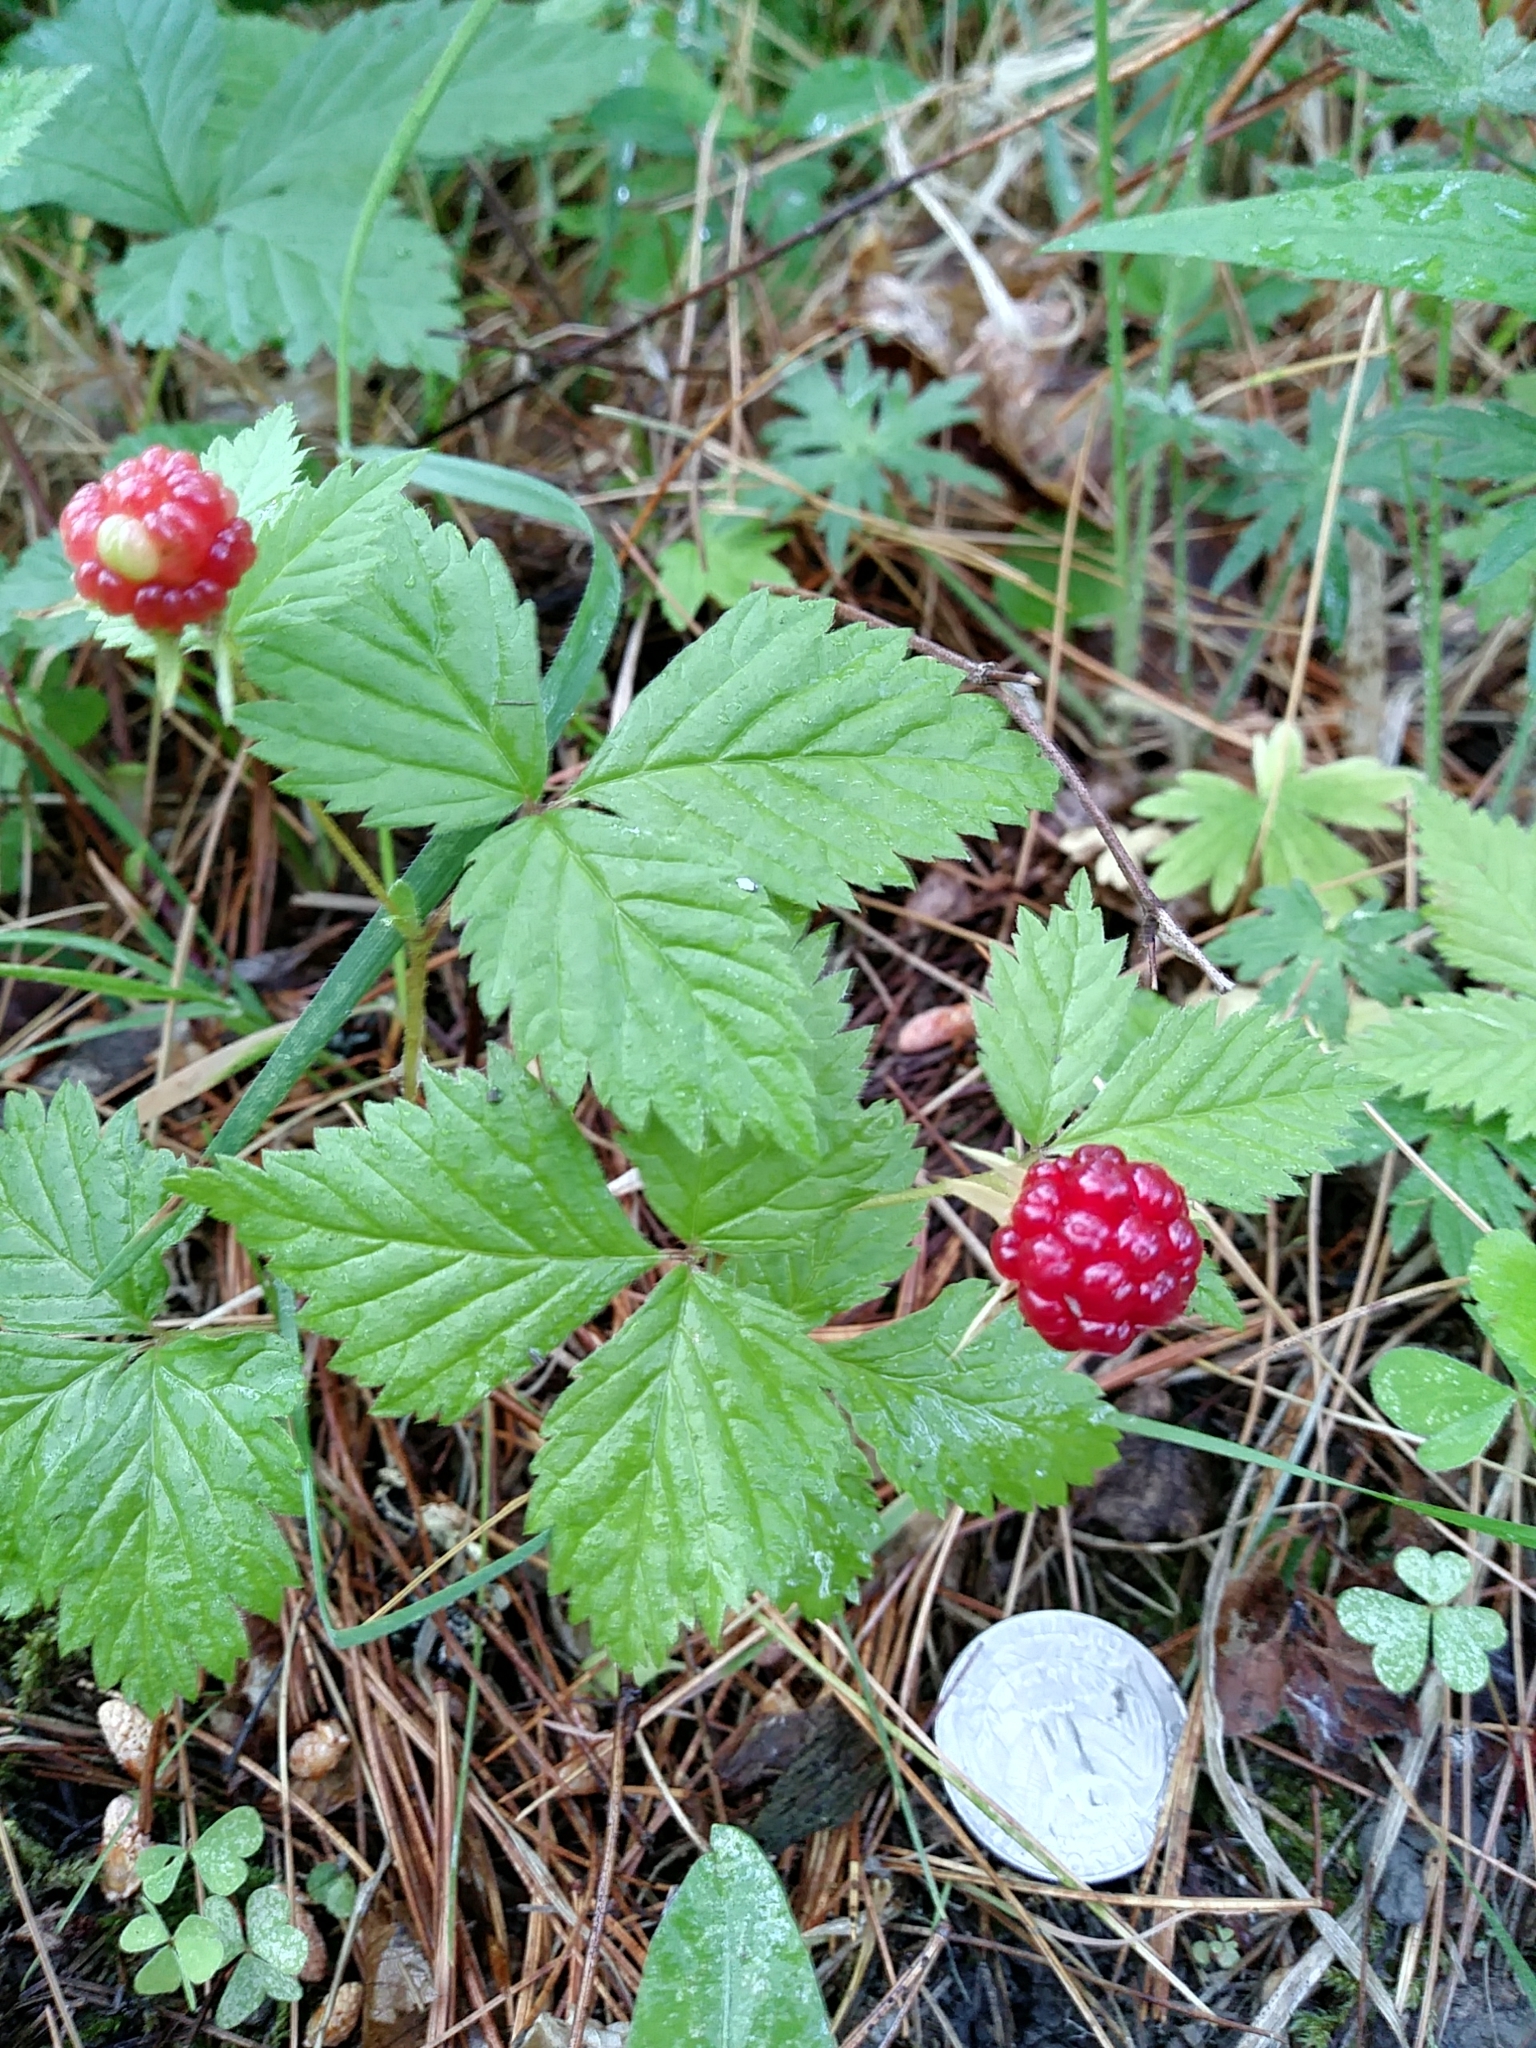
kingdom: Plantae
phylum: Tracheophyta
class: Magnoliopsida
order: Rosales
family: Rosaceae
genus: Rubus
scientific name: Rubus pubescens
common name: Dwarf raspberry
